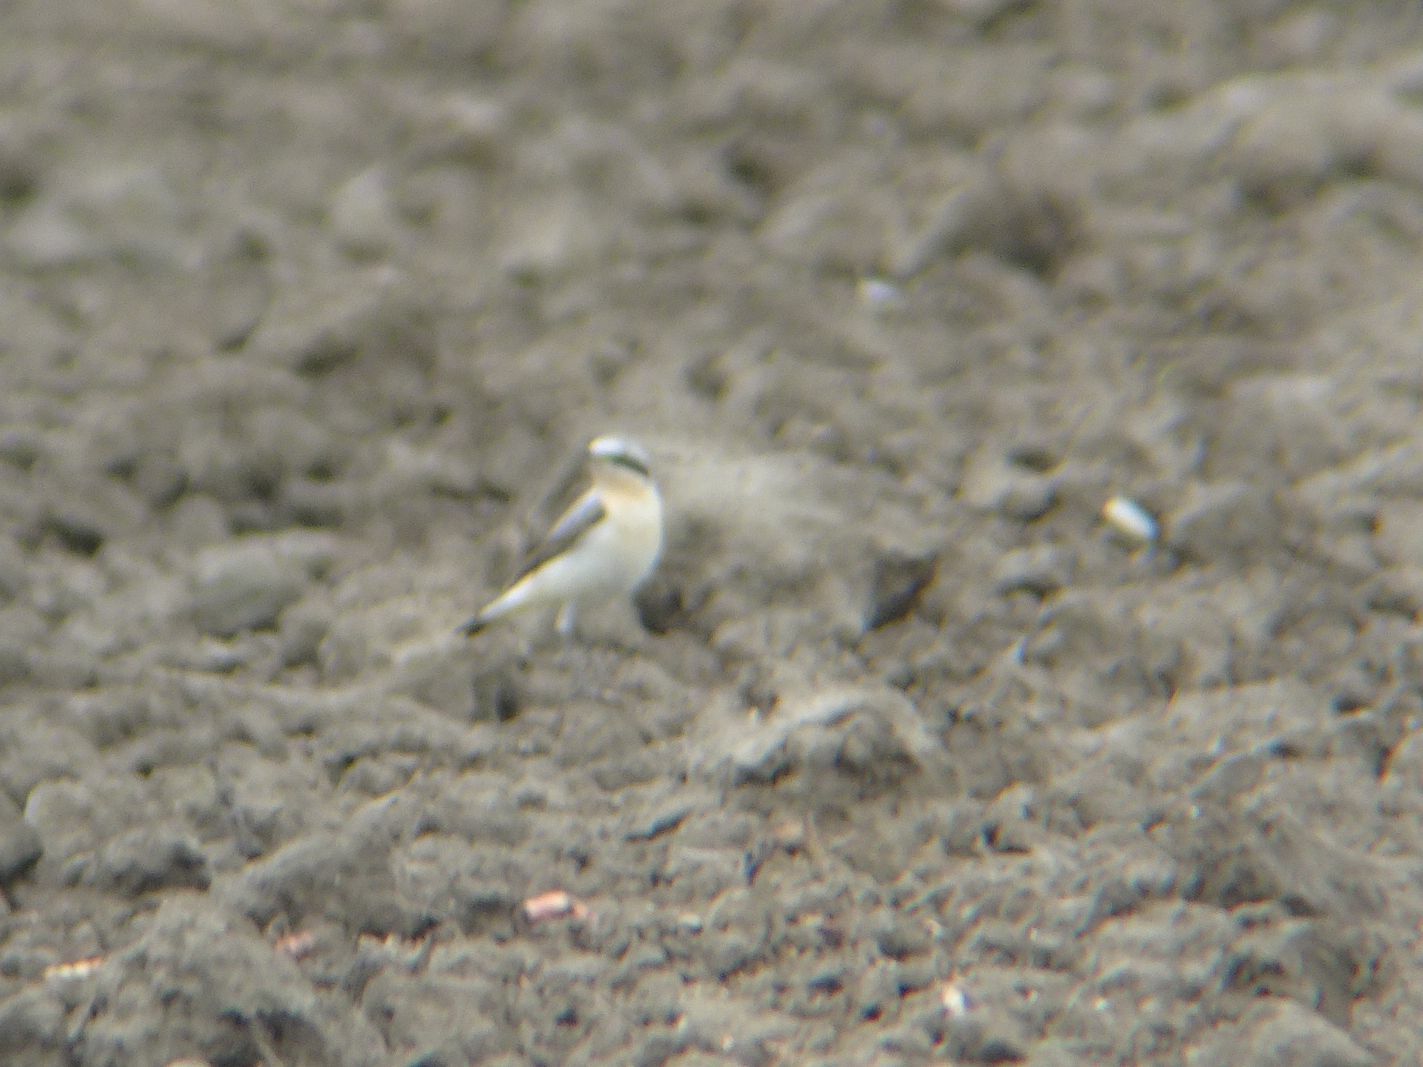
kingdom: Animalia
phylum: Chordata
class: Aves
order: Passeriformes
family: Muscicapidae
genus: Oenanthe
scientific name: Oenanthe oenanthe
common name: Northern wheatear
